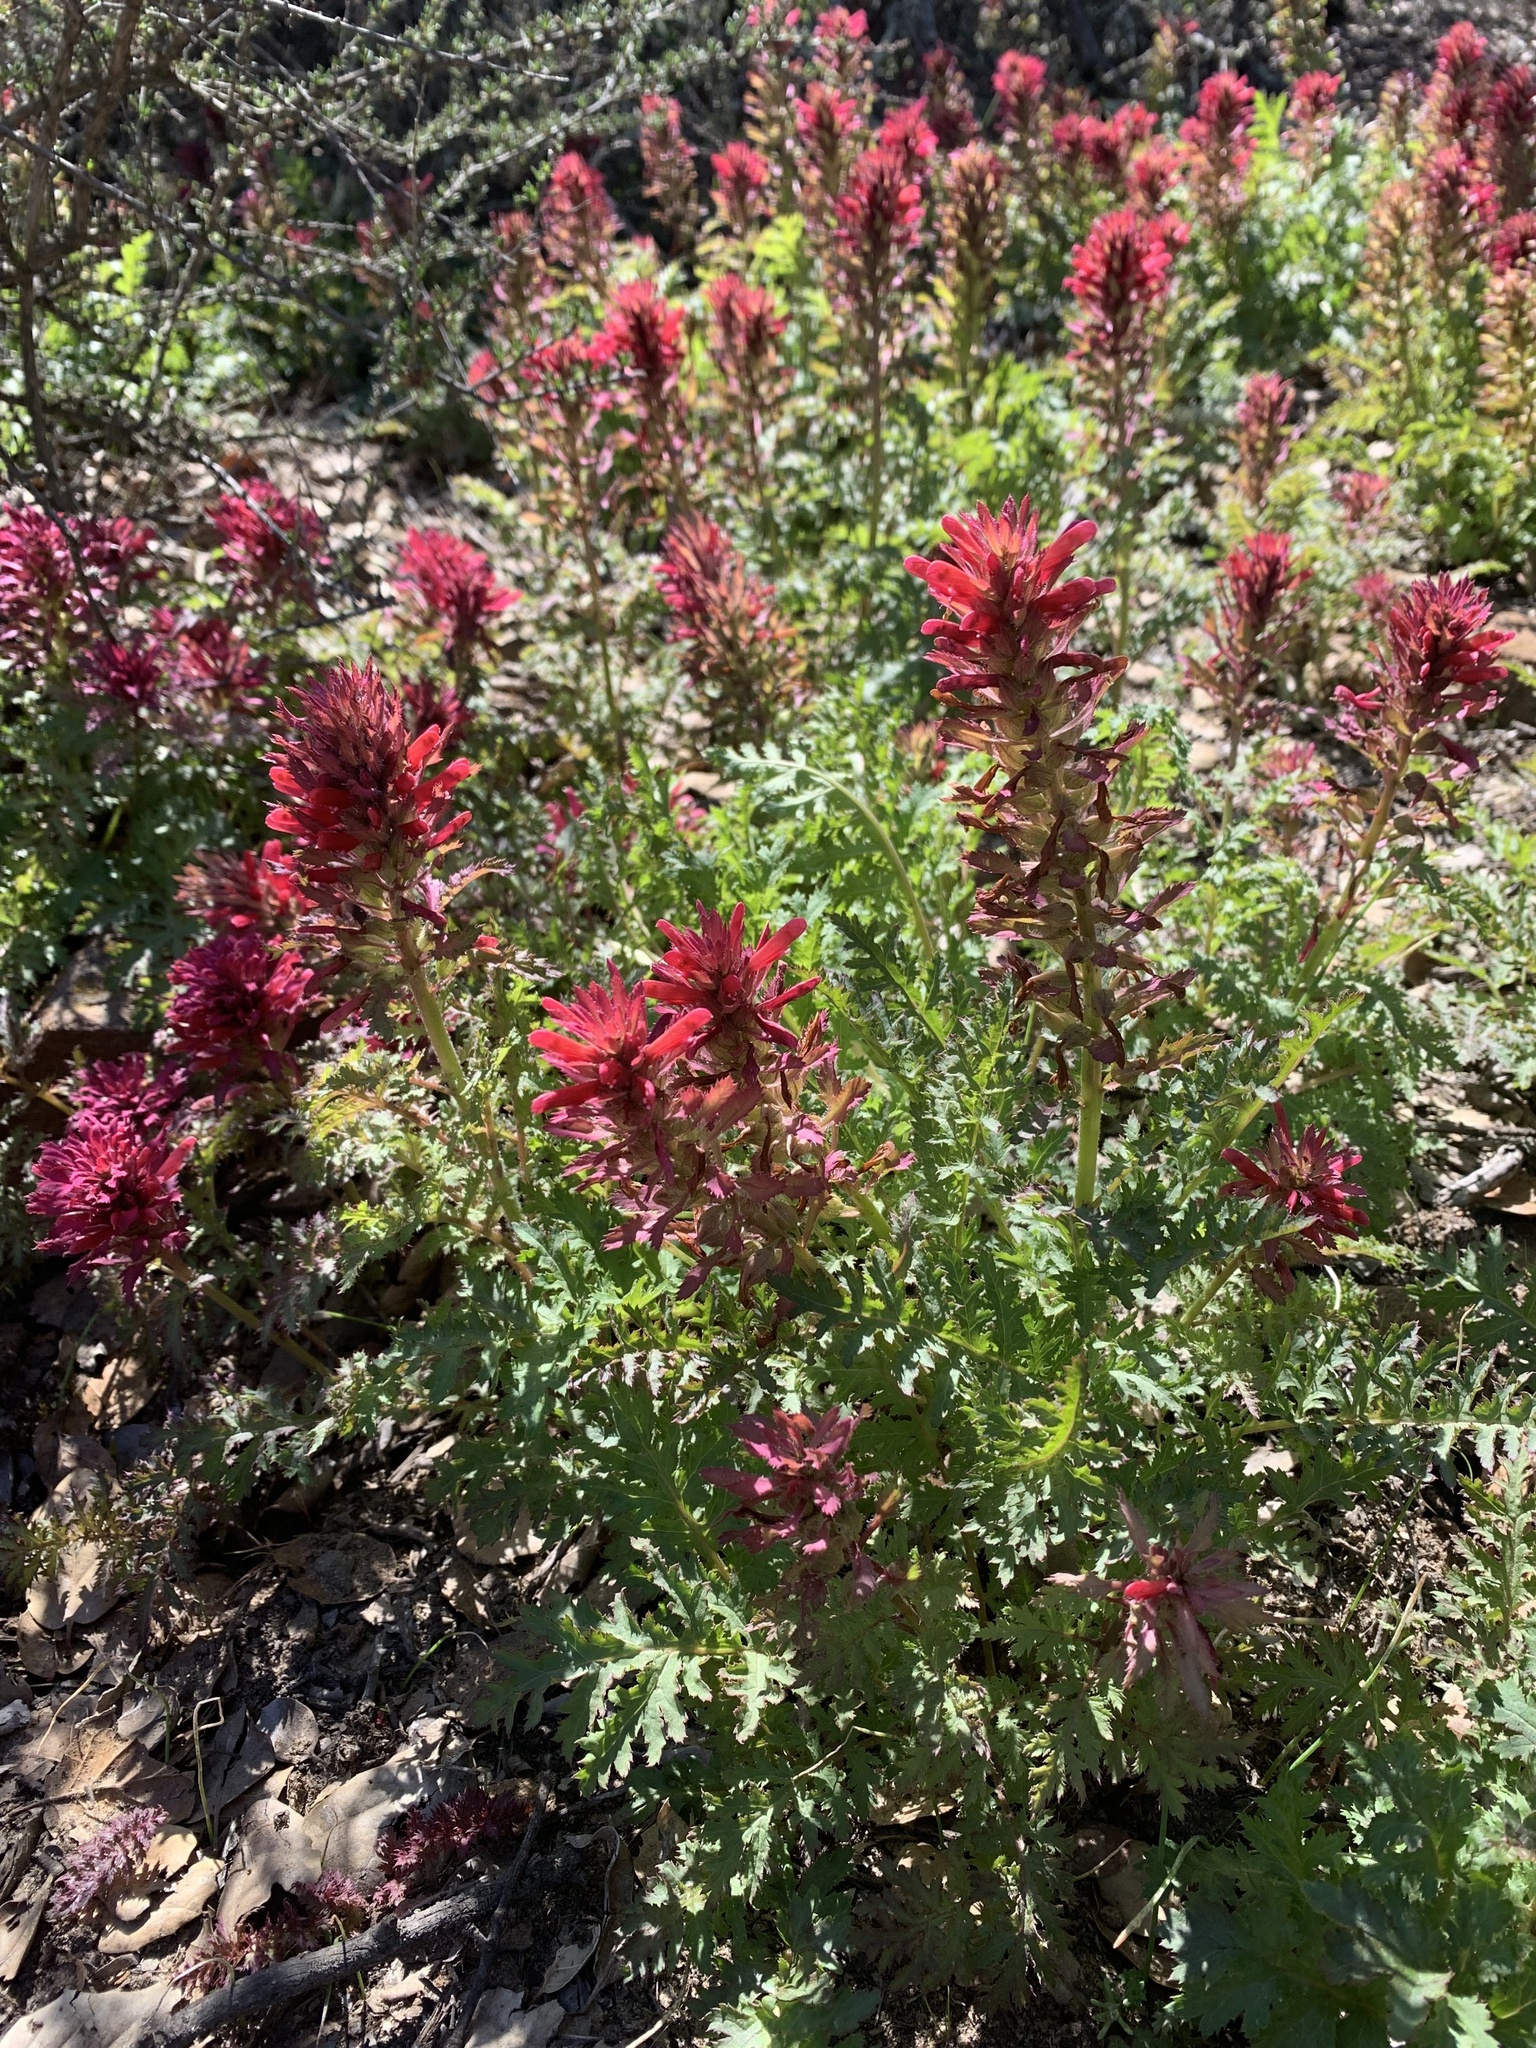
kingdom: Plantae
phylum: Tracheophyta
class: Magnoliopsida
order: Lamiales
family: Orobanchaceae
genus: Pedicularis
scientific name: Pedicularis densiflora
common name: Indian warrior
